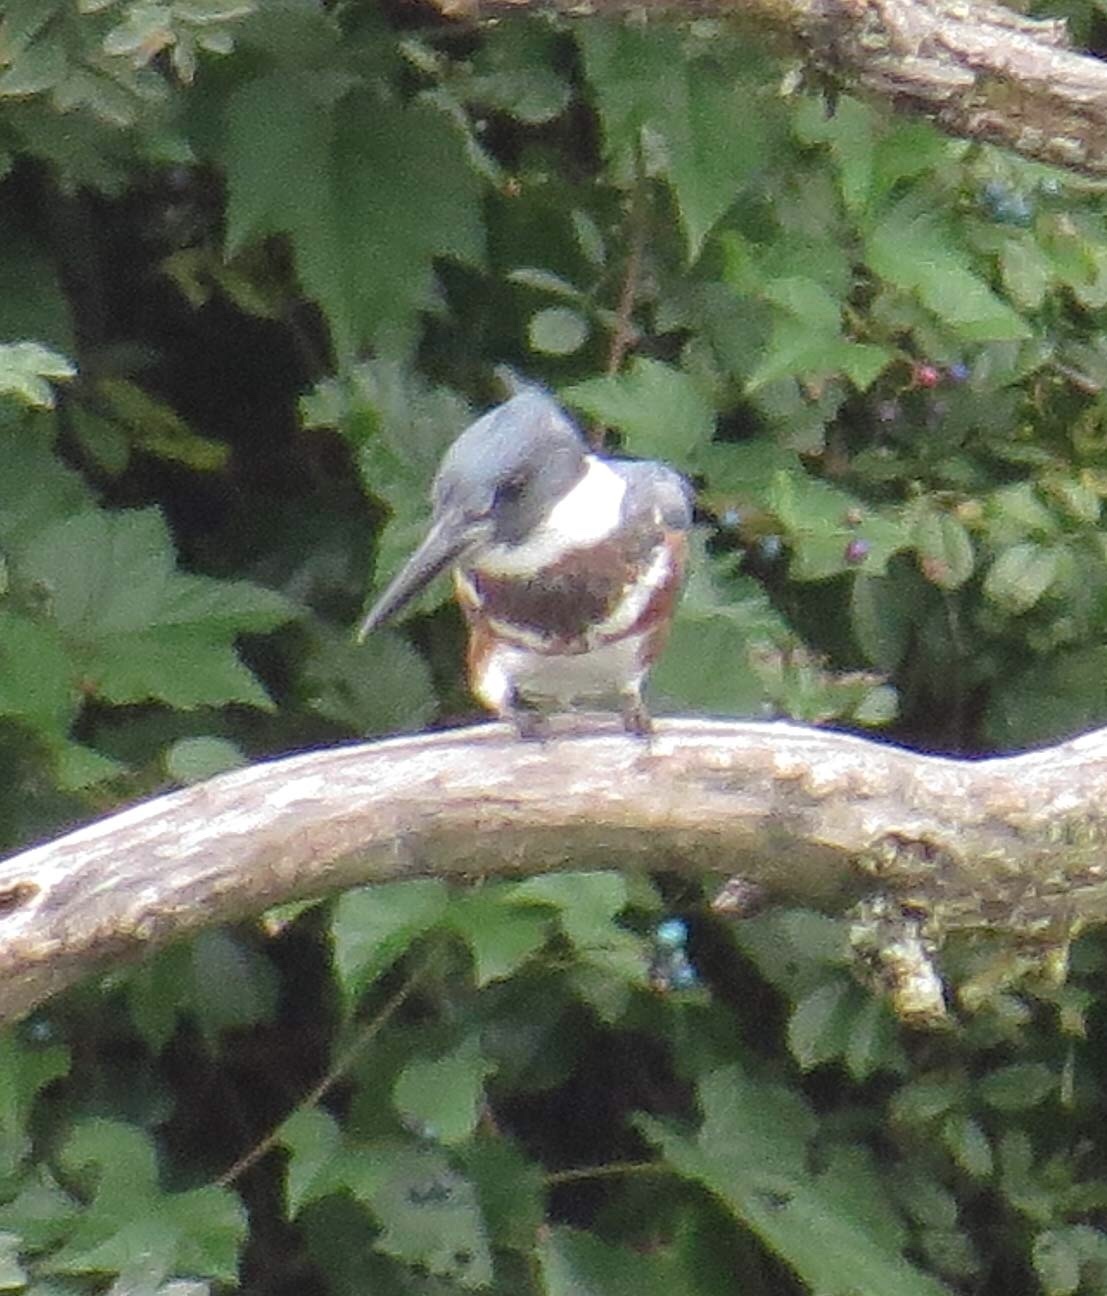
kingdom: Animalia
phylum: Chordata
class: Aves
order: Coraciiformes
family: Alcedinidae
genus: Megaceryle
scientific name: Megaceryle alcyon
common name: Belted kingfisher
